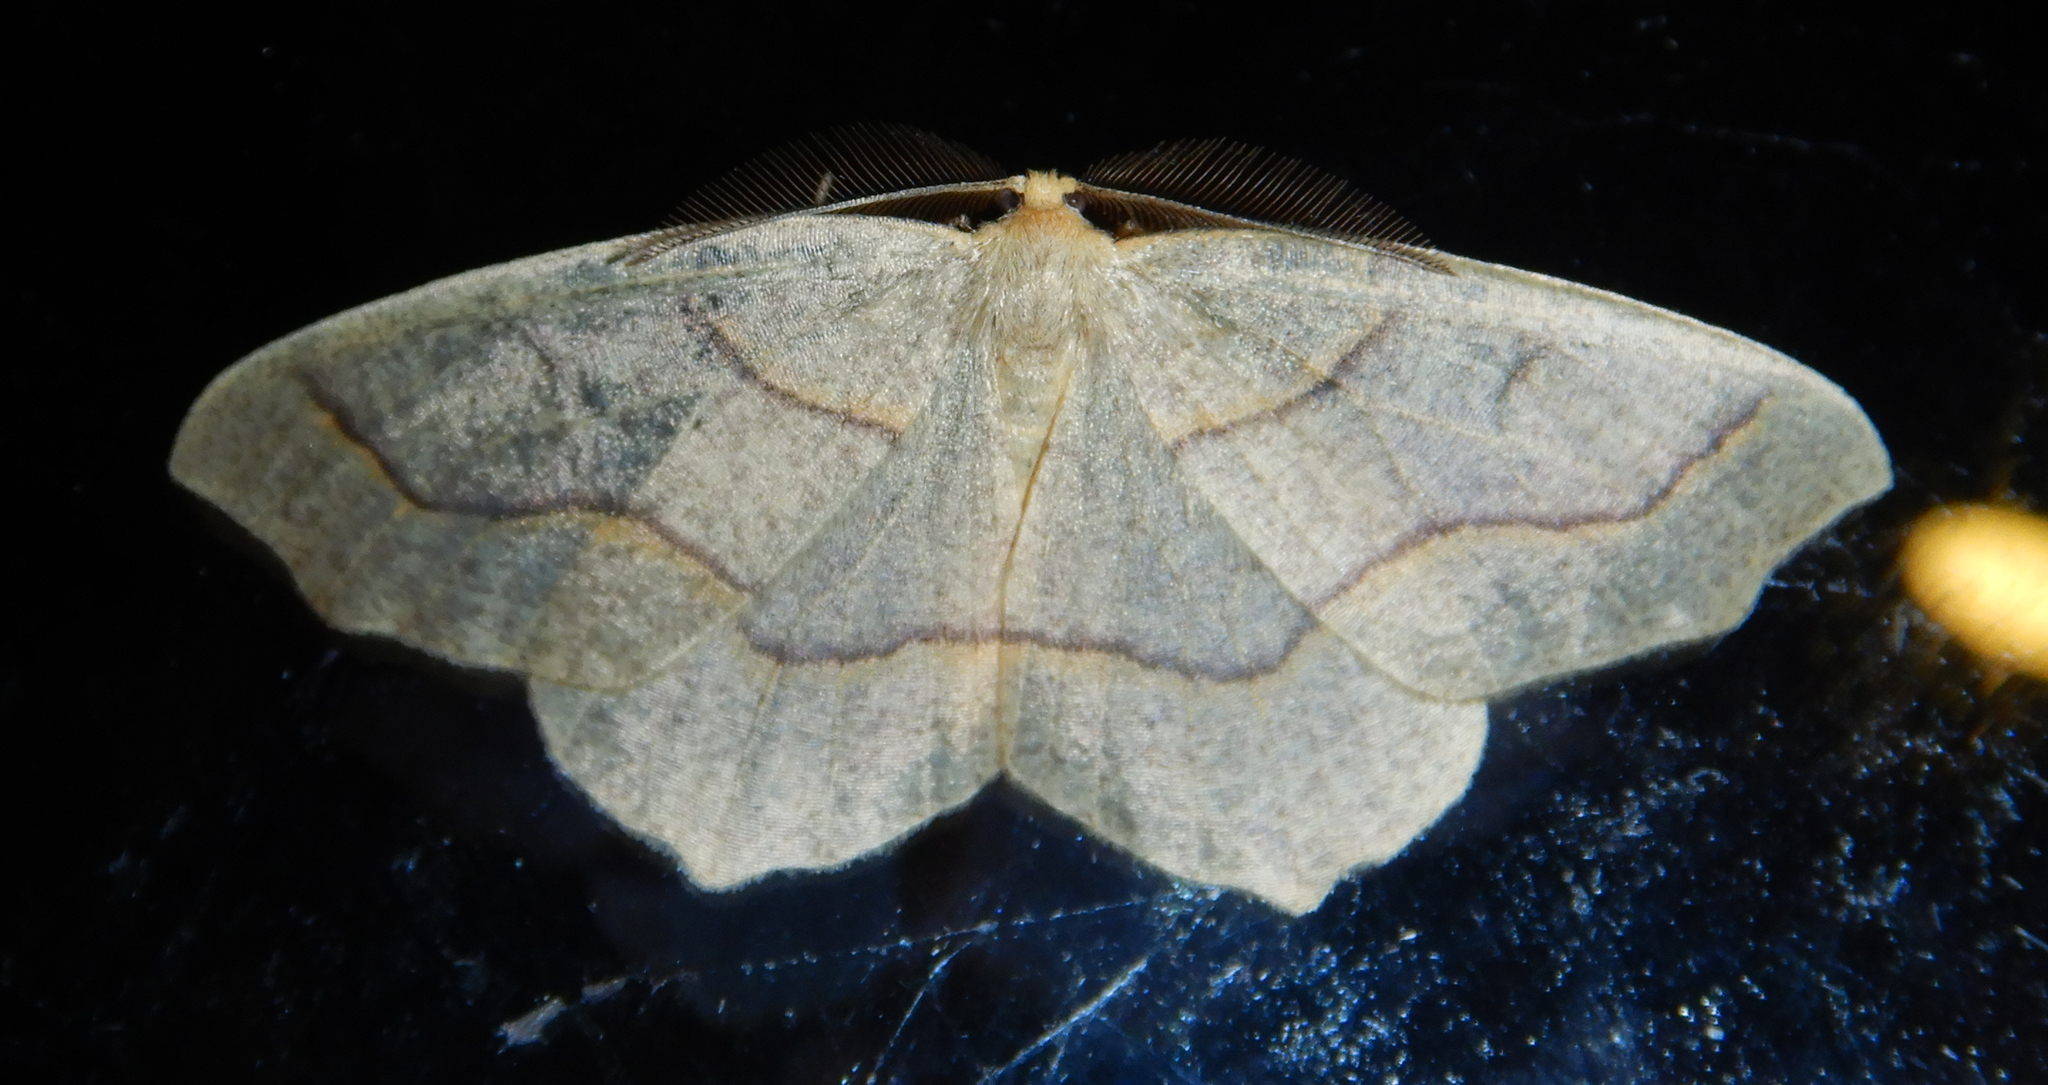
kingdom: Animalia
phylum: Arthropoda
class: Insecta
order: Lepidoptera
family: Geometridae
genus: Lambdina
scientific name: Lambdina fiscellaria
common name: Hemlock looper
